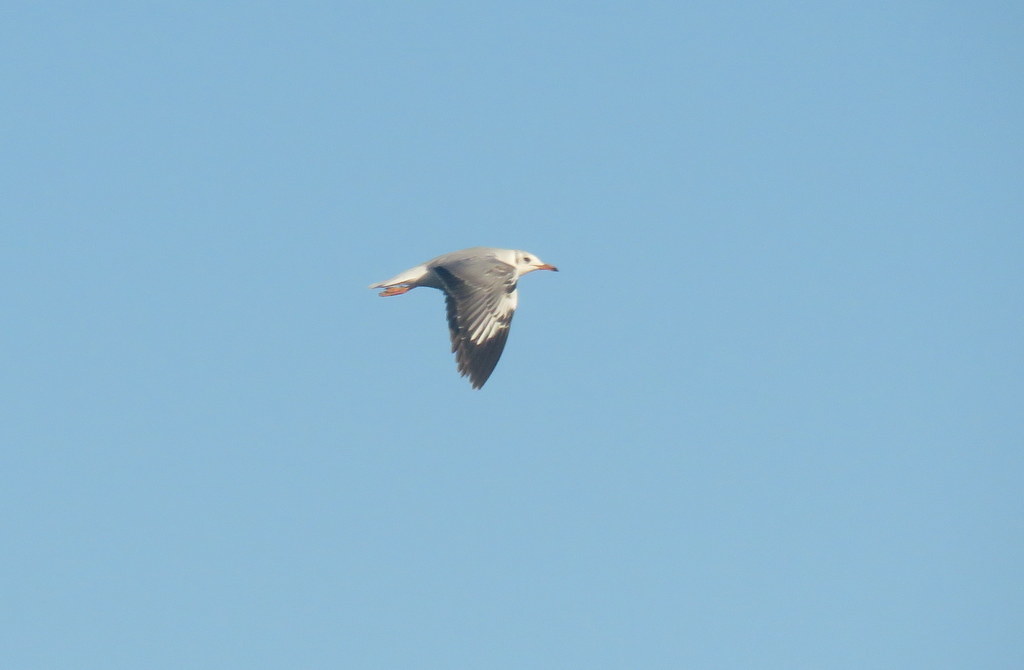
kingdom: Animalia
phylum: Chordata
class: Aves
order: Charadriiformes
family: Laridae
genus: Chroicocephalus
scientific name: Chroicocephalus maculipennis
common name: Brown-hooded gull
